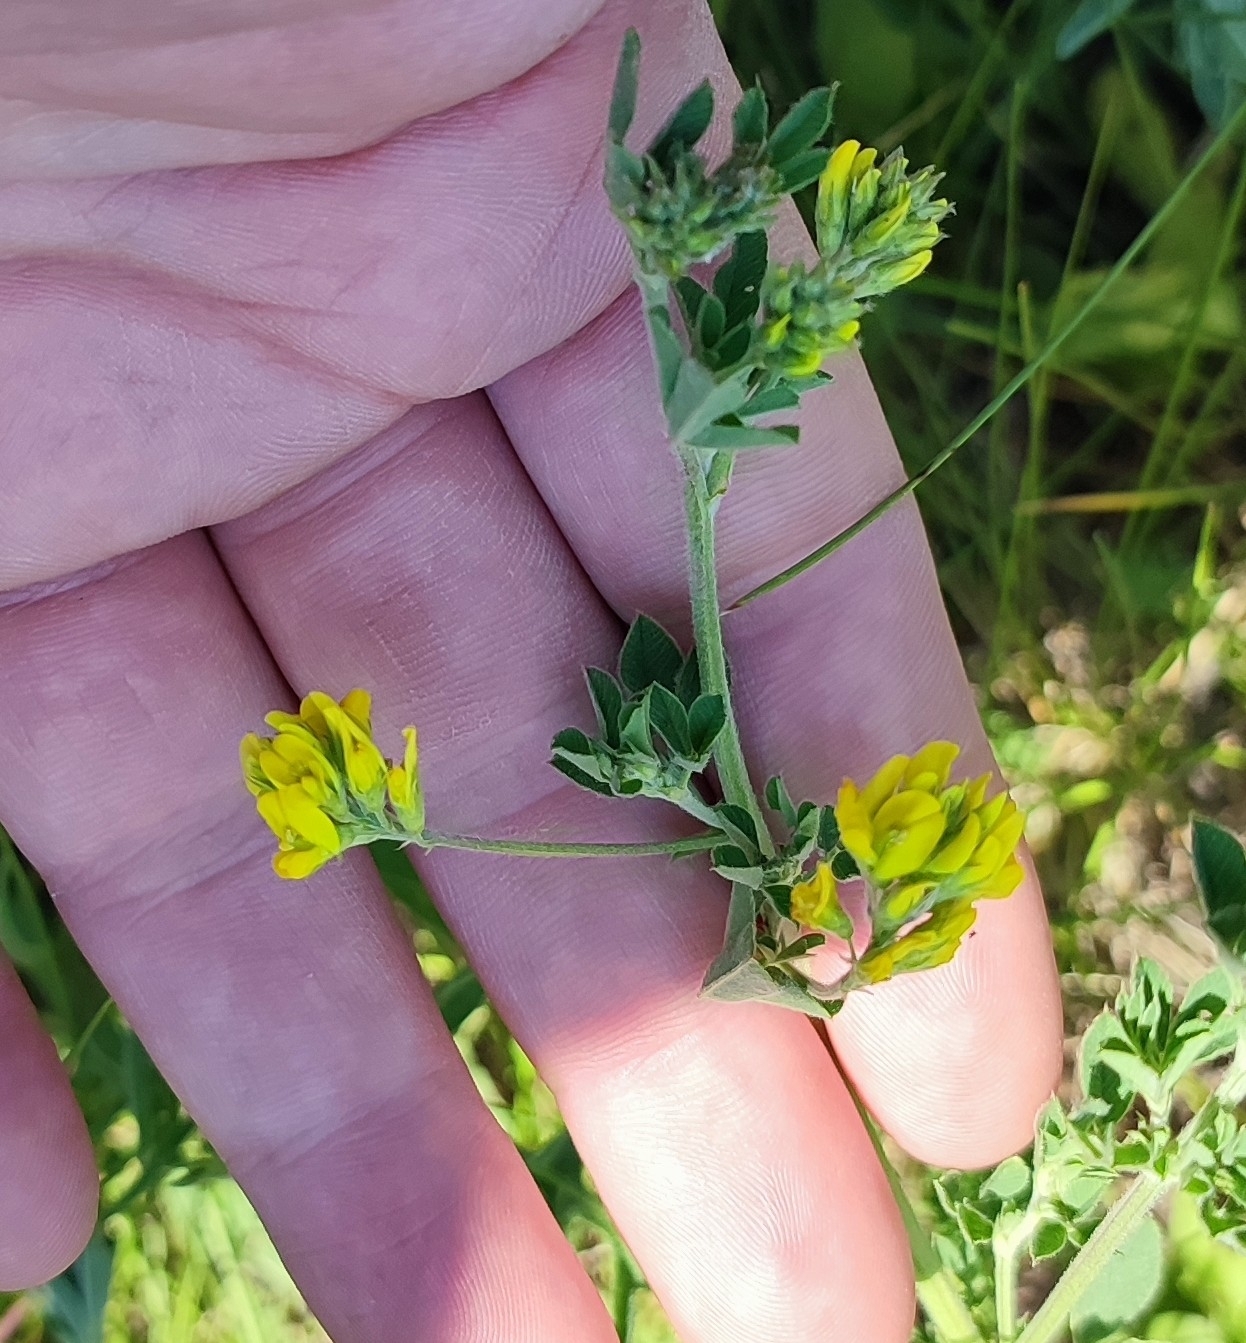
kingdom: Plantae
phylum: Tracheophyta
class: Magnoliopsida
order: Fabales
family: Fabaceae
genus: Medicago
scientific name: Medicago falcata
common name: Sickle medick
